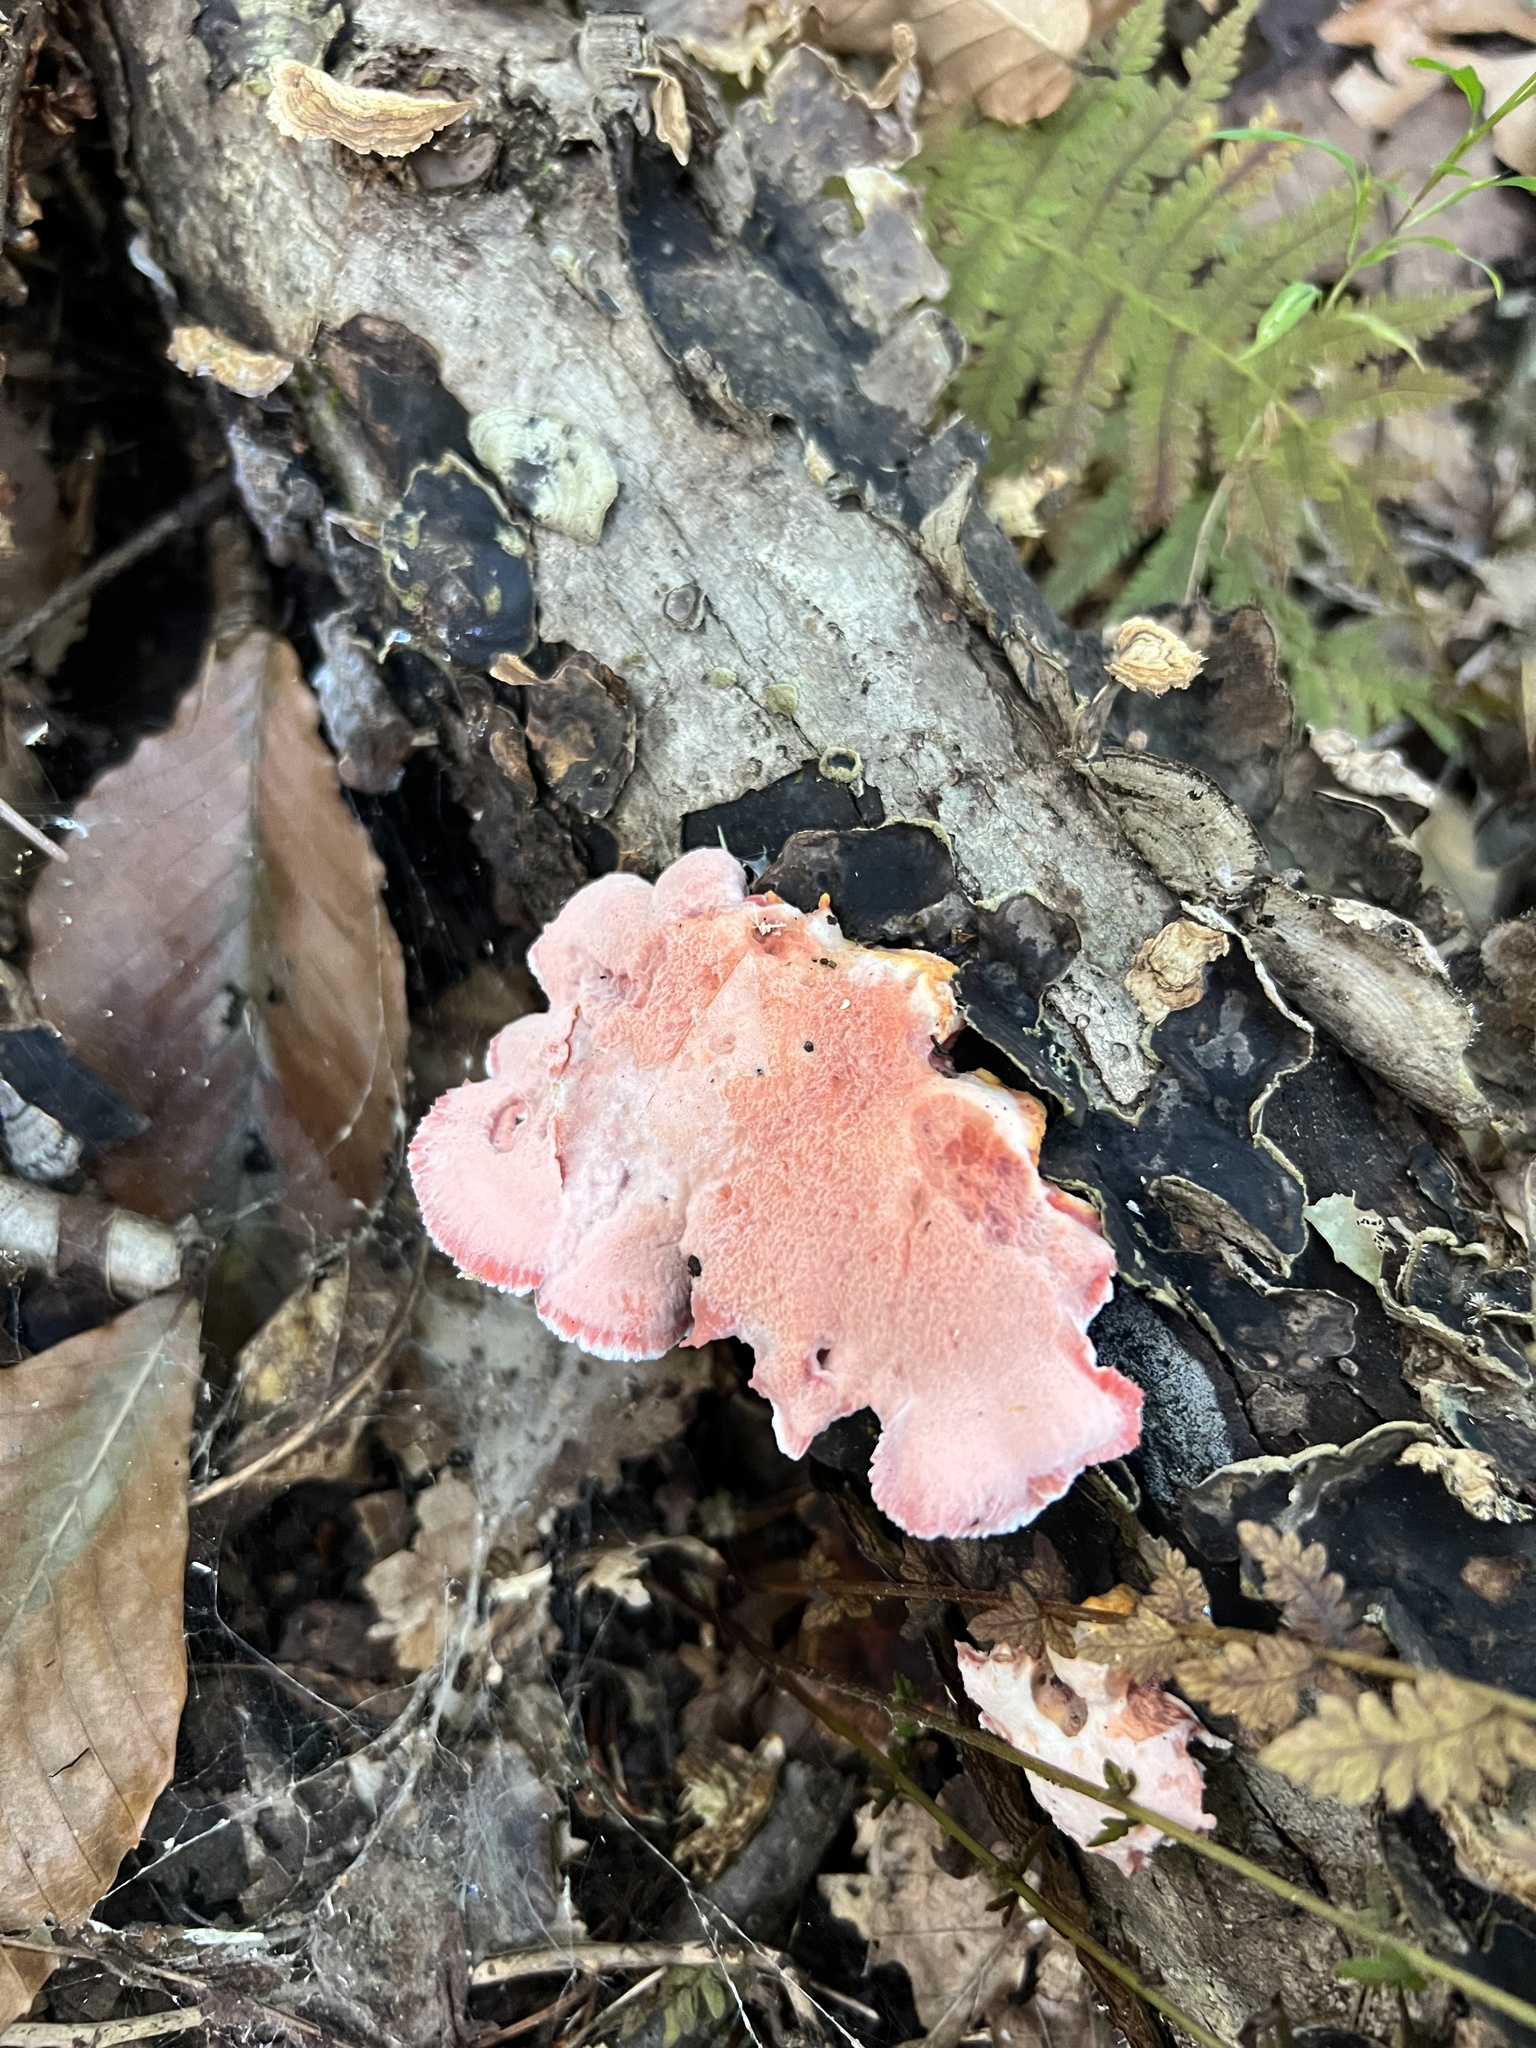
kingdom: Fungi
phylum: Basidiomycota
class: Agaricomycetes
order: Polyporales
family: Irpicaceae
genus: Byssomerulius
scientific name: Byssomerulius incarnatus
